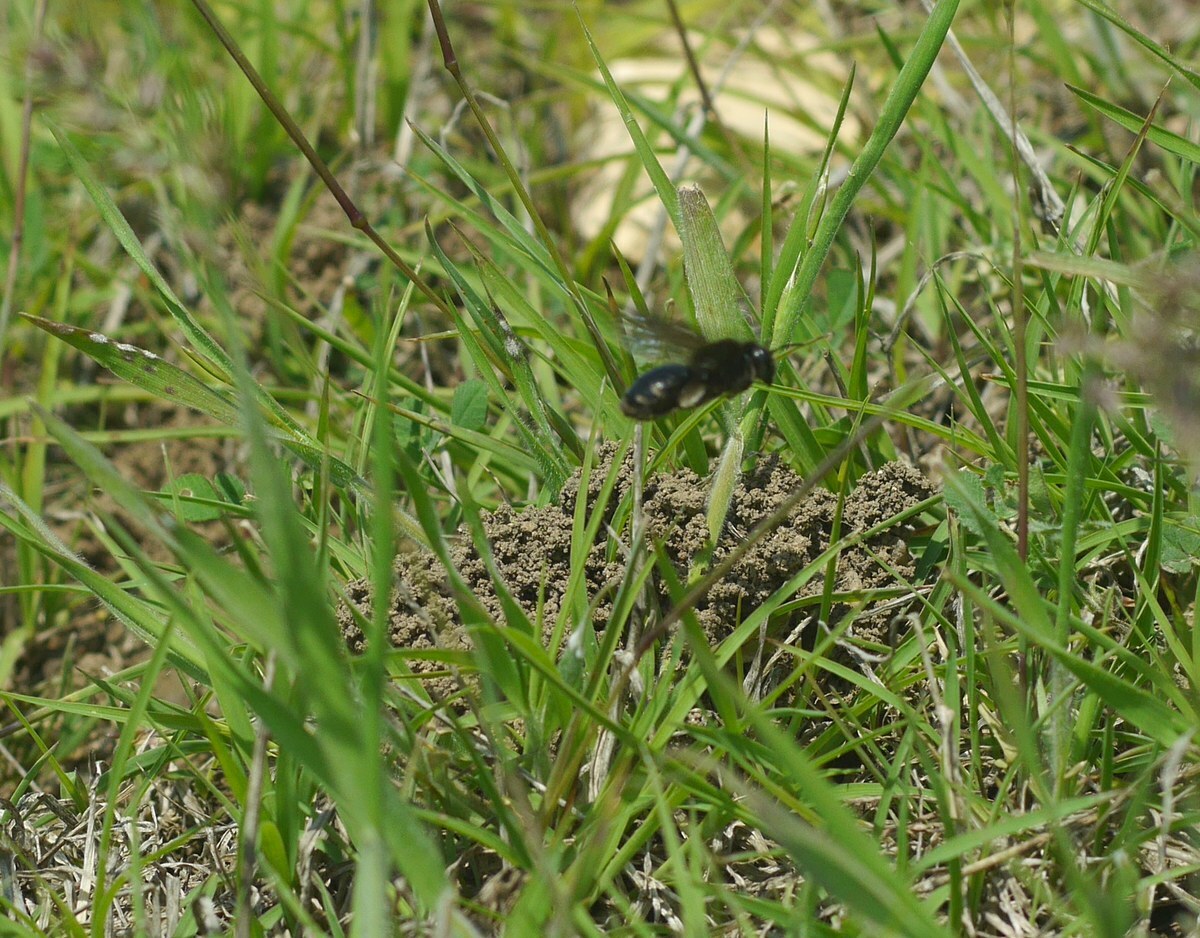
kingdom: Animalia
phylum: Arthropoda
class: Insecta
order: Hymenoptera
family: Andrenidae
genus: Andrena
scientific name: Andrena magna
